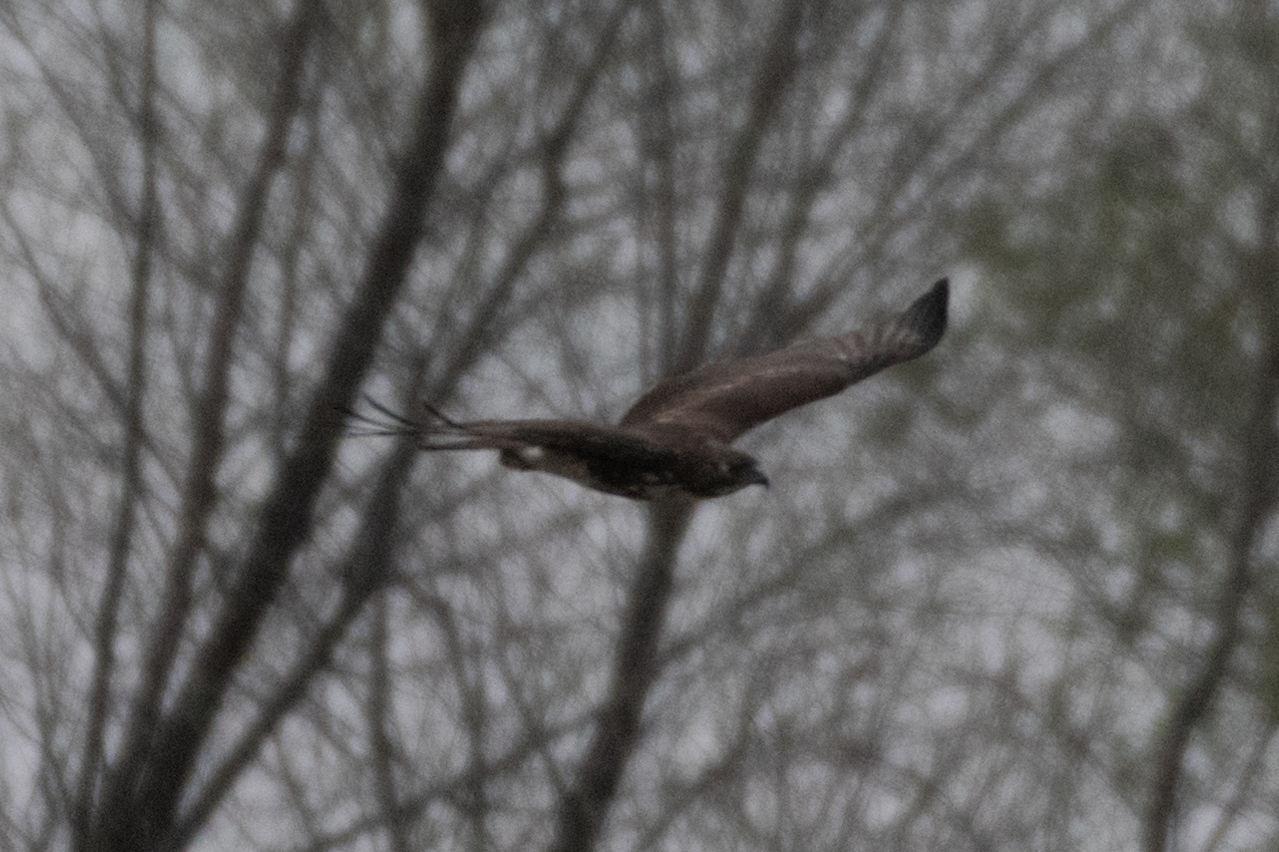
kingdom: Animalia
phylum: Chordata
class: Aves
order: Accipitriformes
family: Accipitridae
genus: Buteo
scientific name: Buteo jamaicensis
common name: Red-tailed hawk
